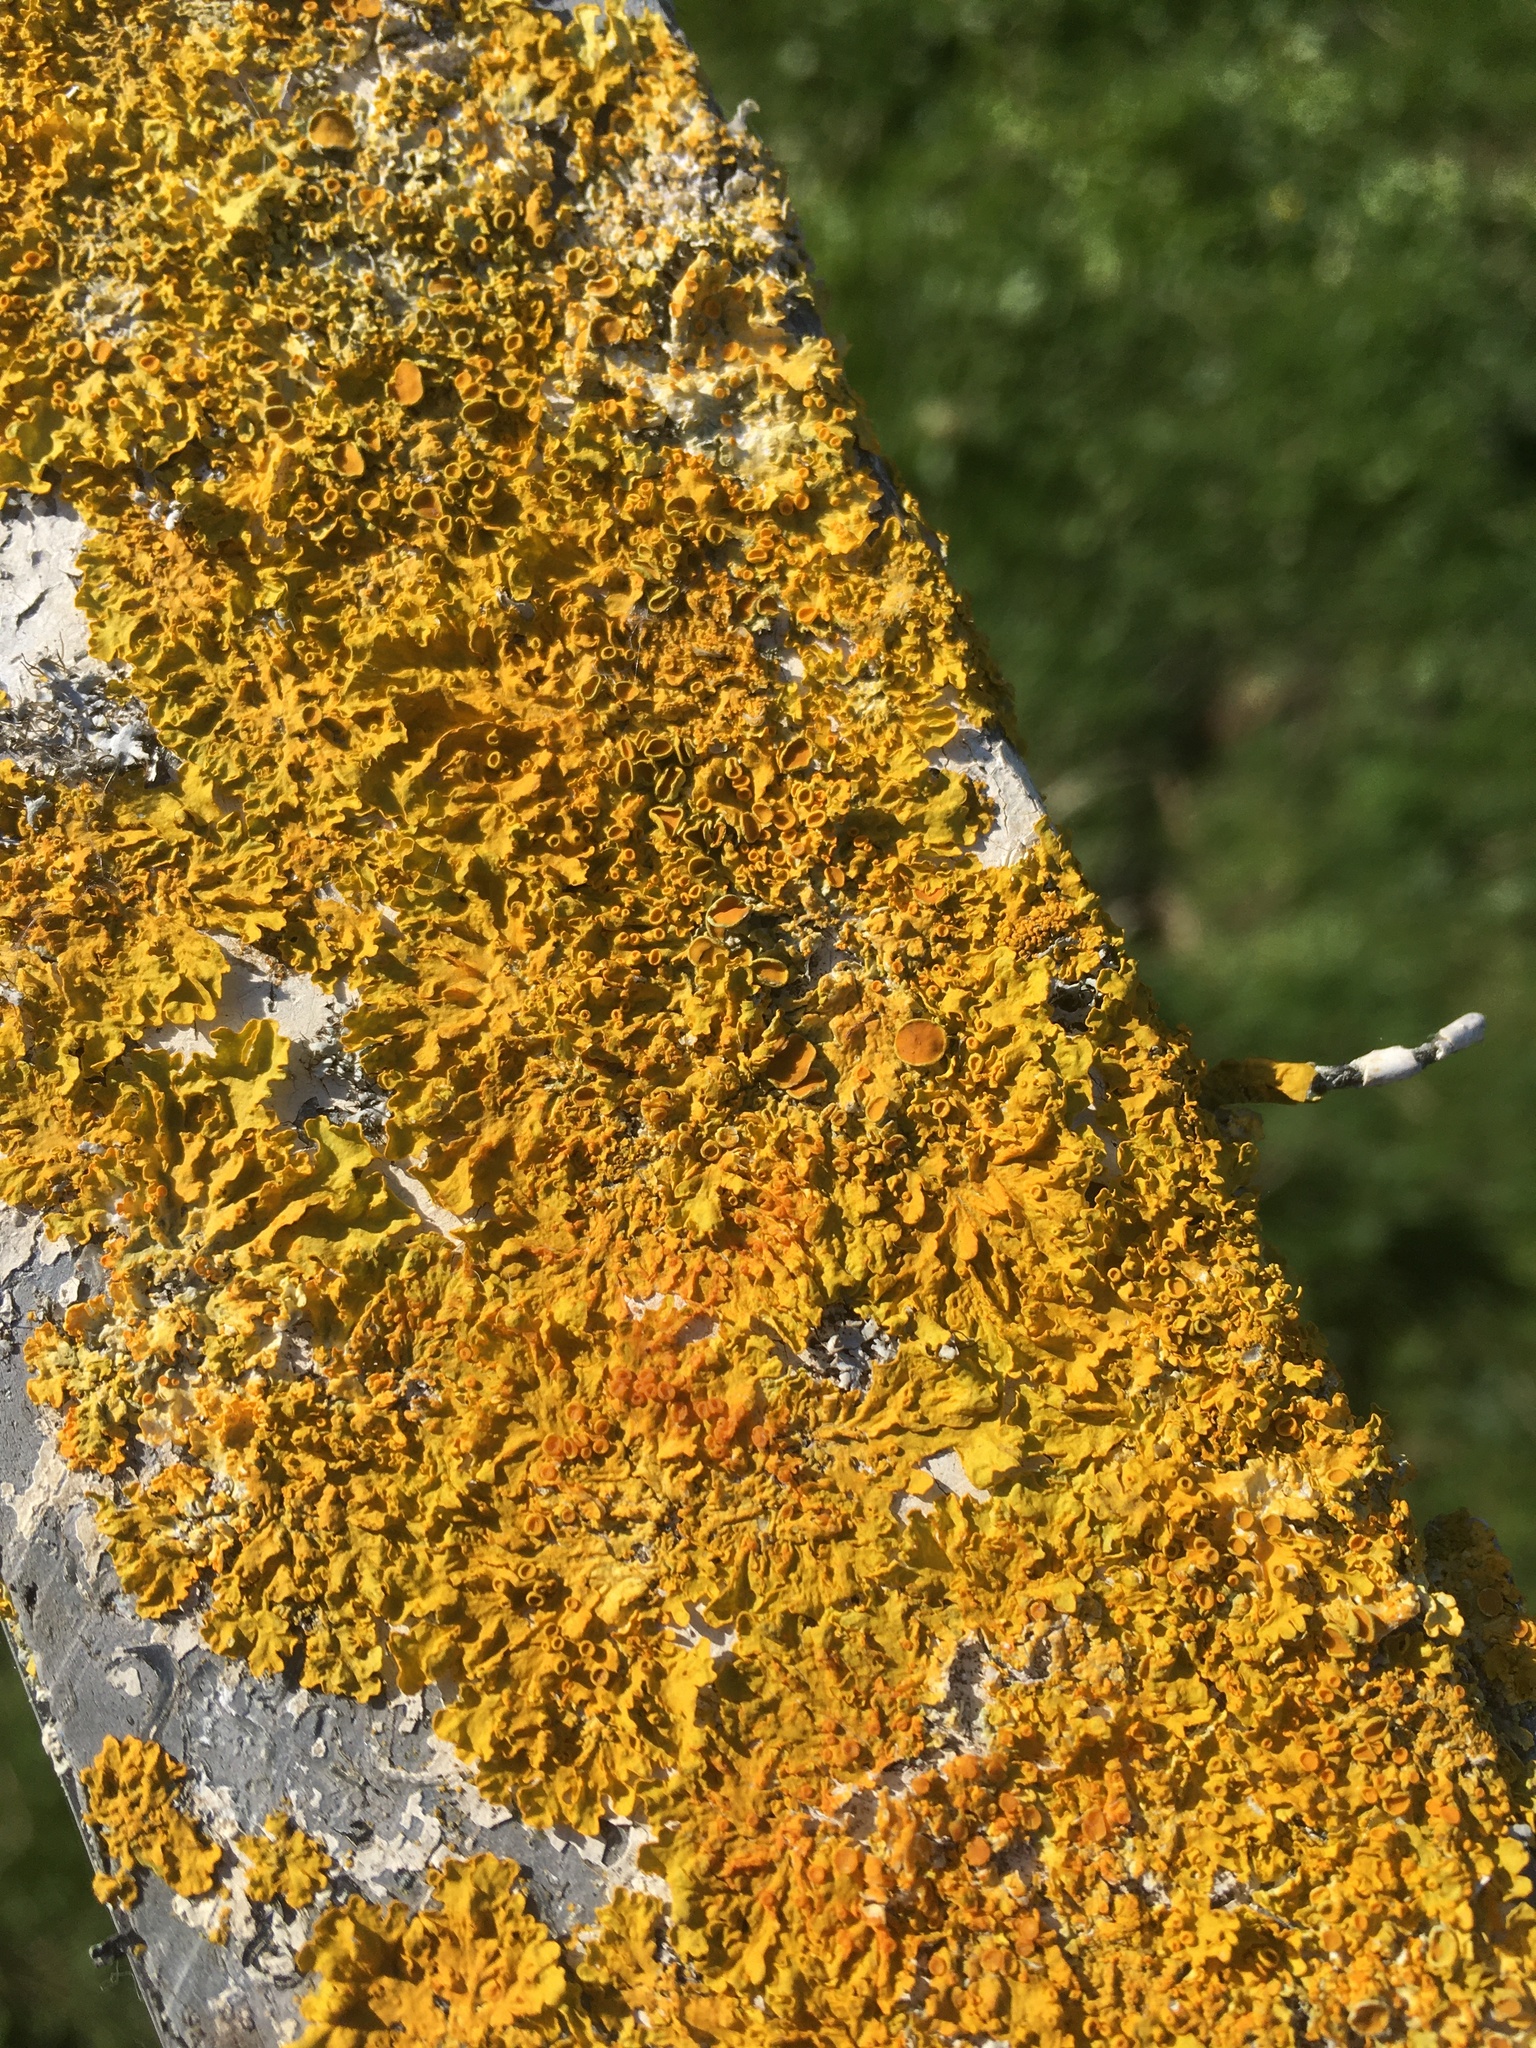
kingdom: Fungi
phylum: Ascomycota
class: Lecanoromycetes
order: Teloschistales
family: Teloschistaceae
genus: Xanthoria
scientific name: Xanthoria parietina
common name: Common orange lichen
